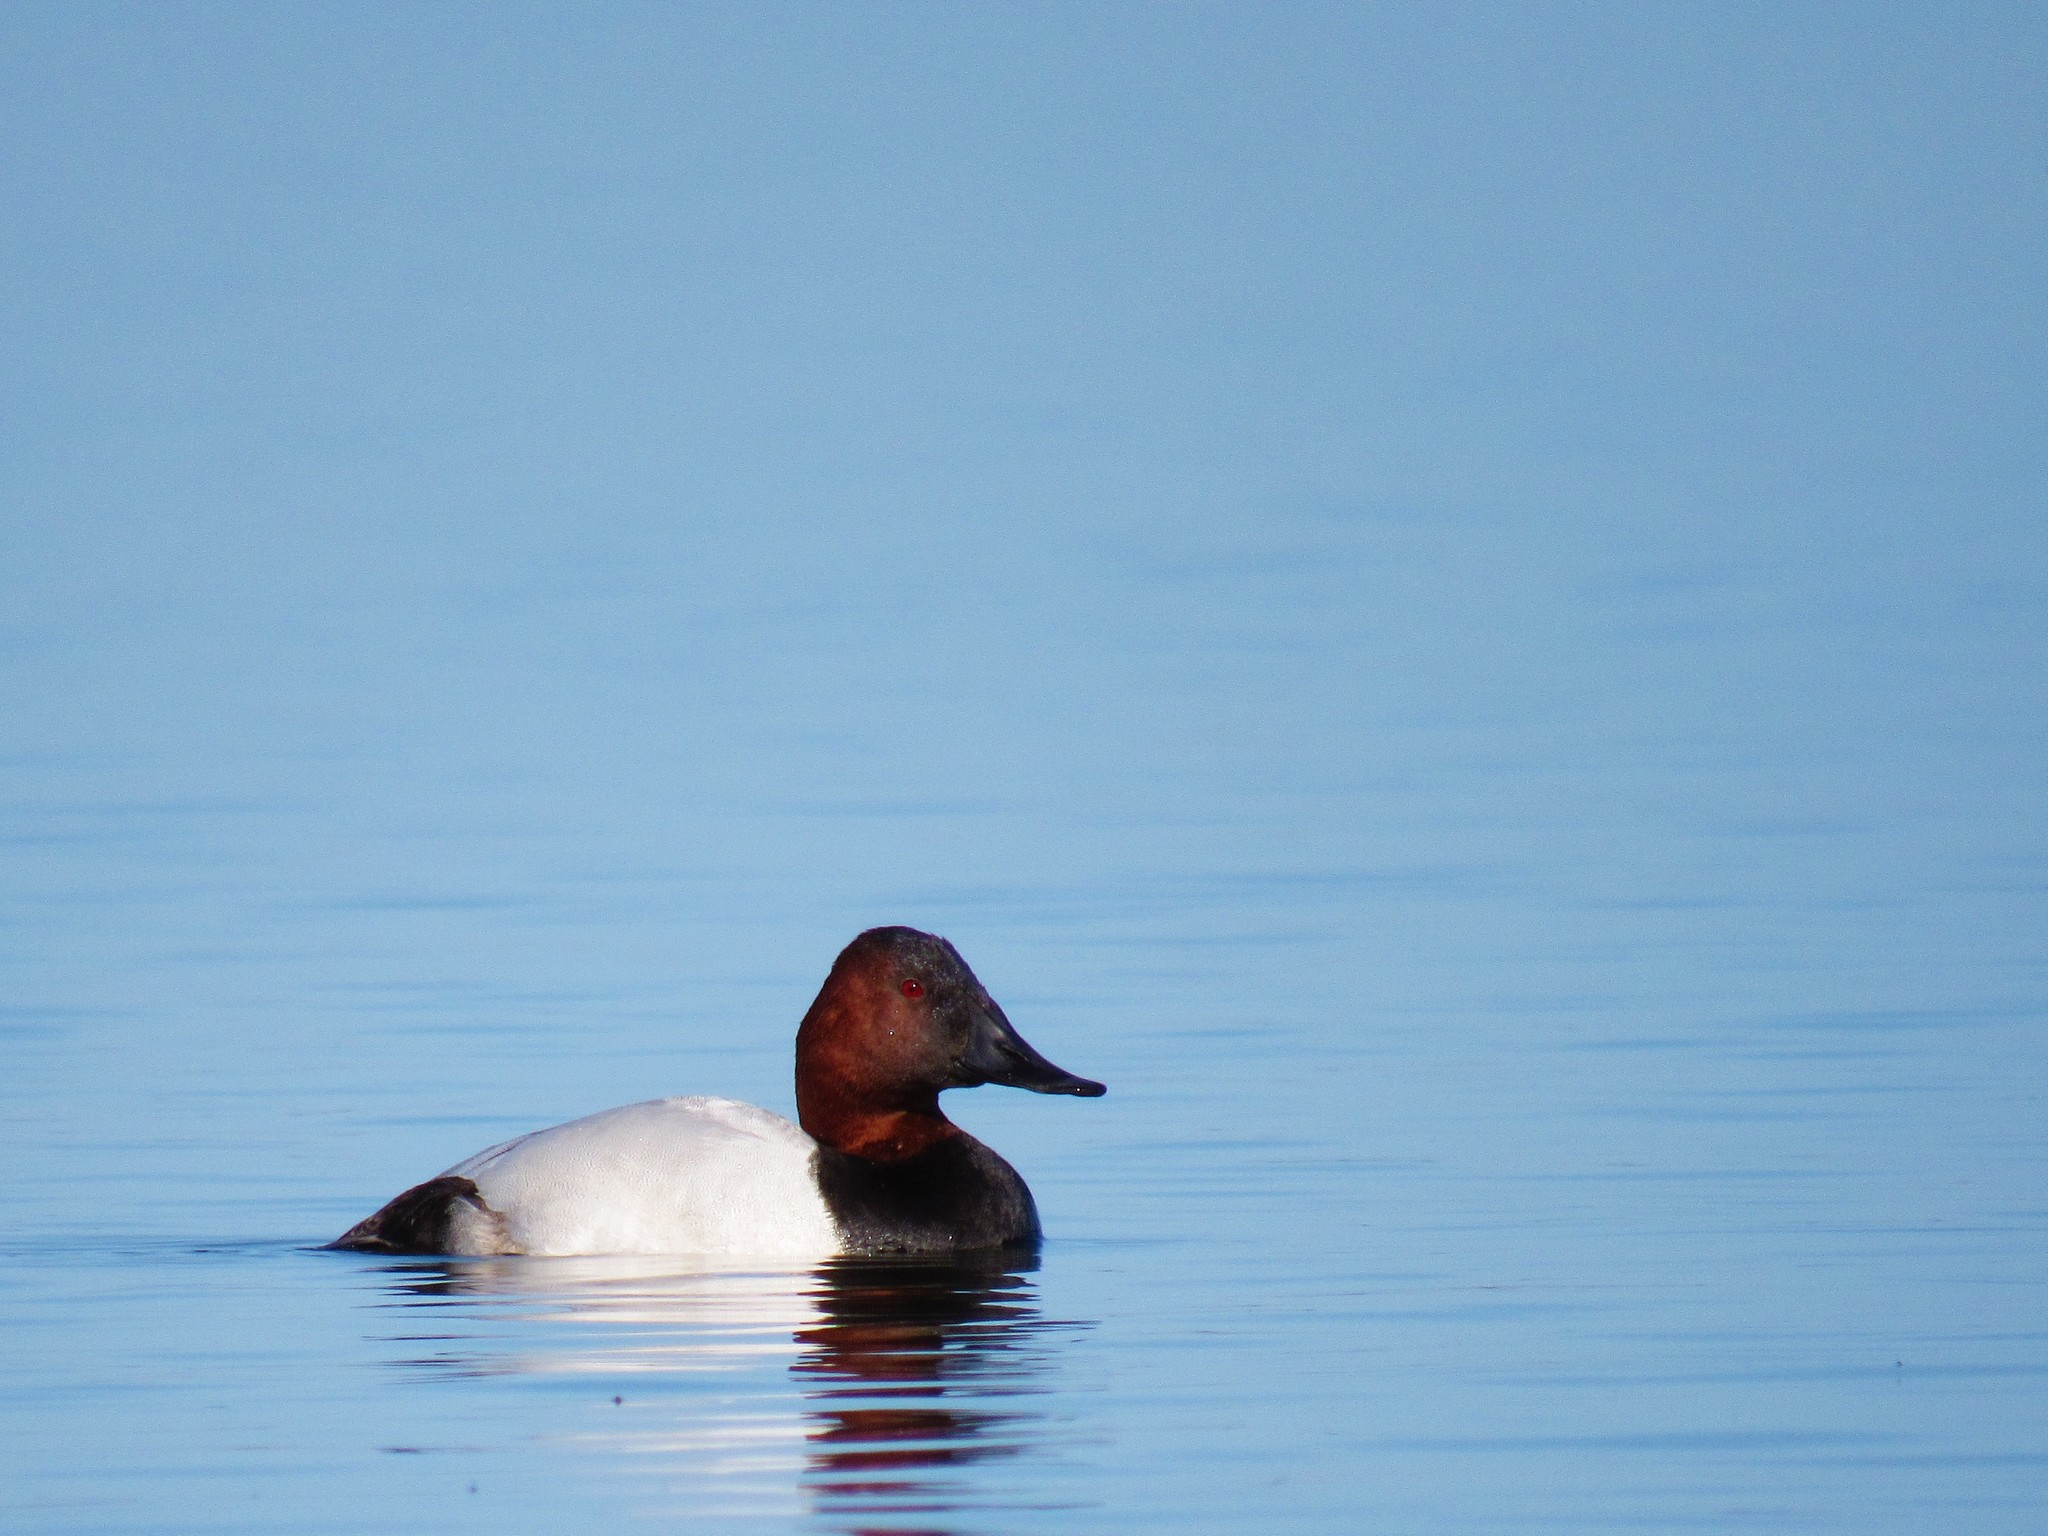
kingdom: Animalia
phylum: Chordata
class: Aves
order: Anseriformes
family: Anatidae
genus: Aythya
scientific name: Aythya valisineria
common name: Canvasback
